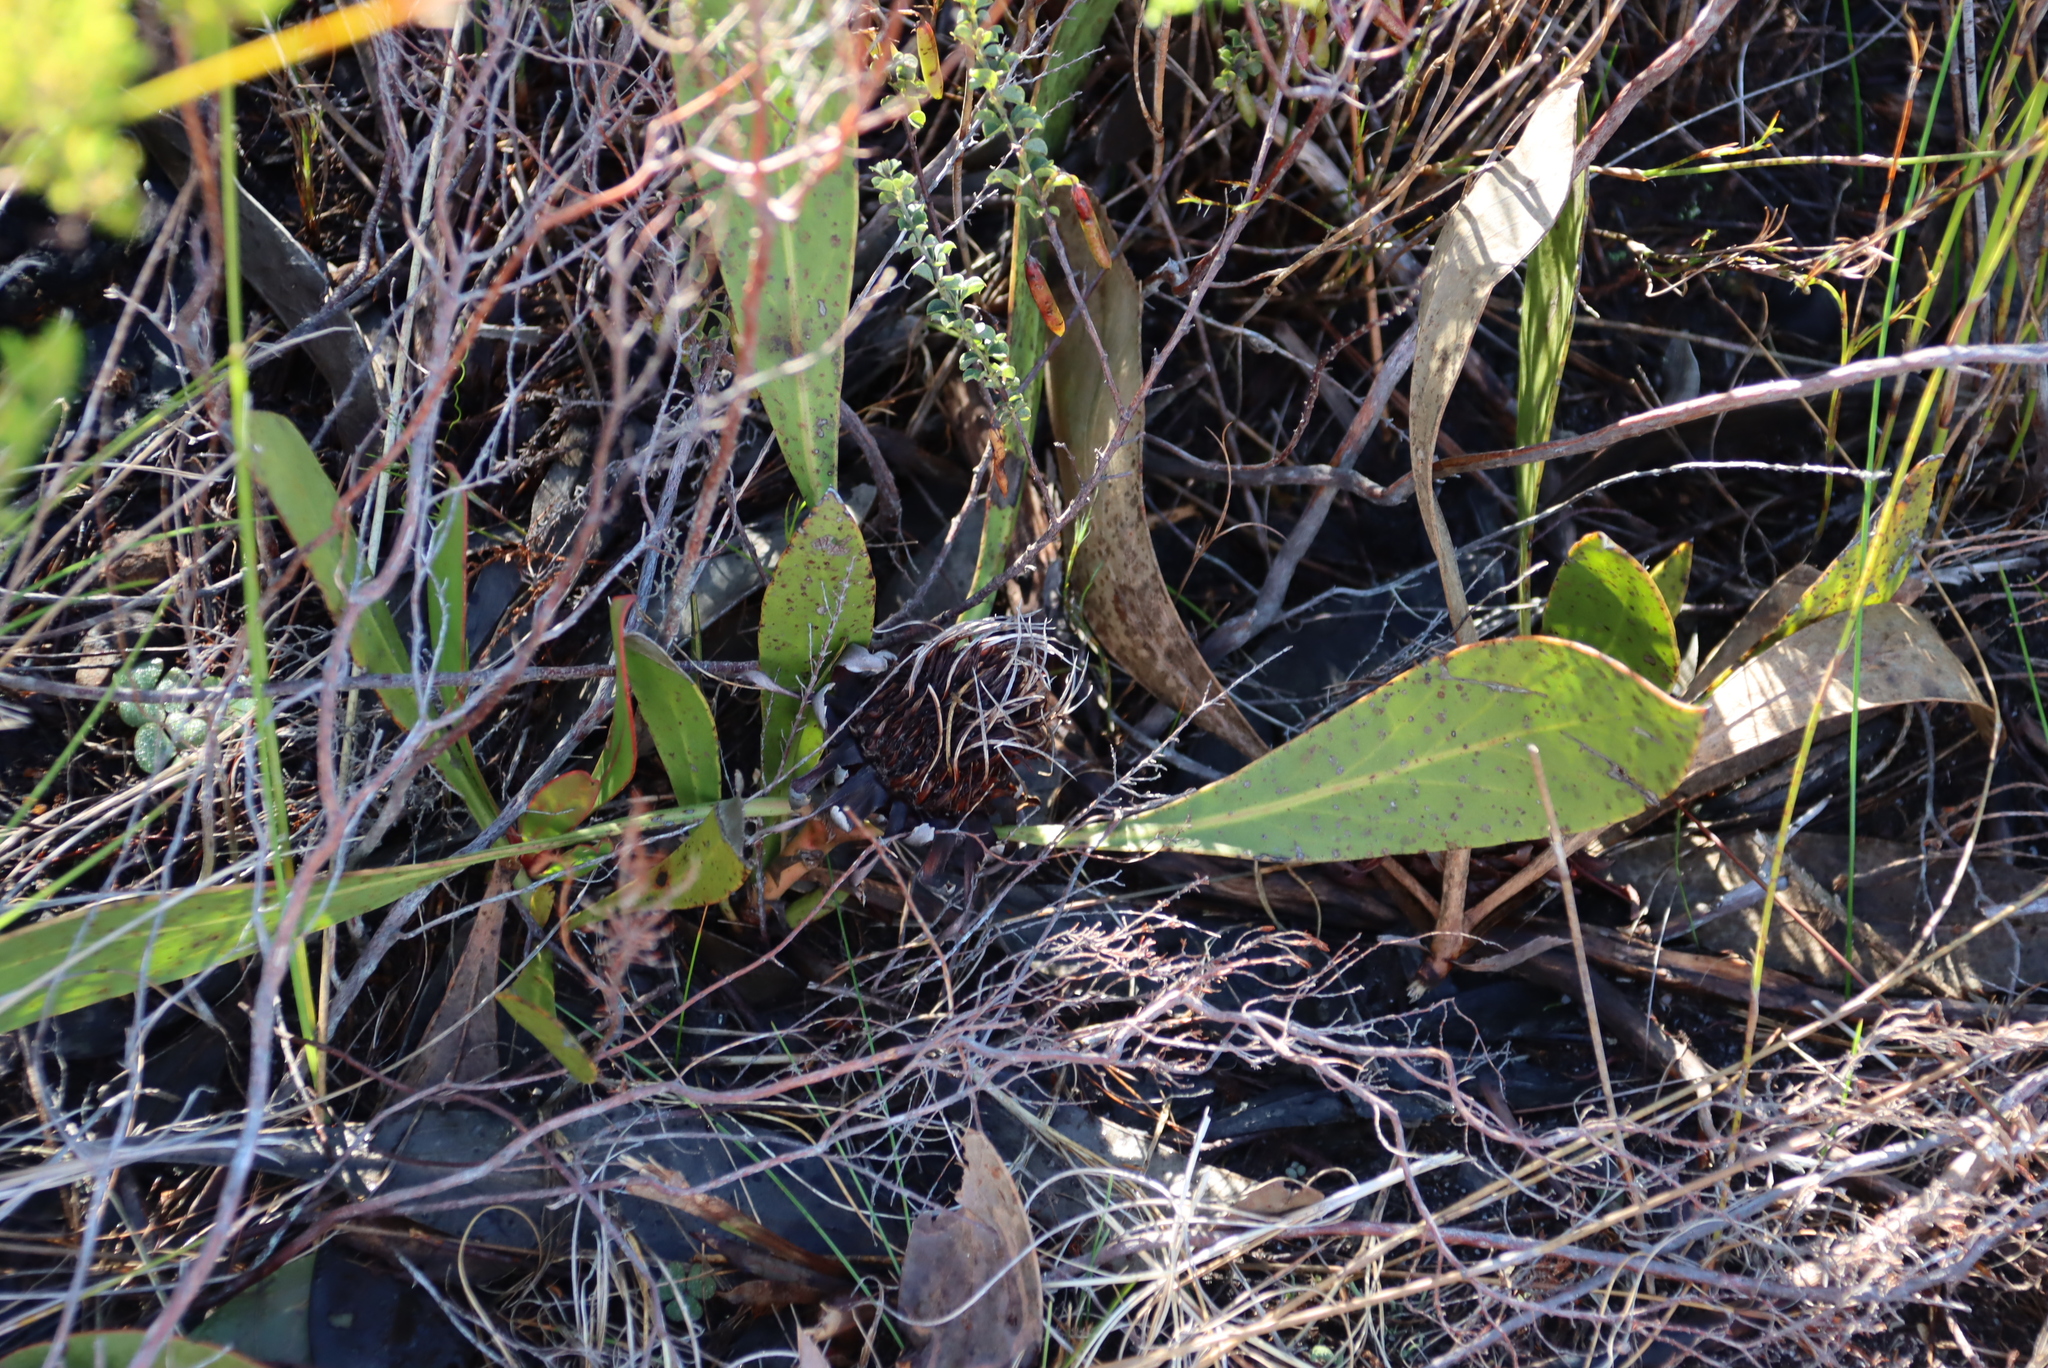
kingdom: Plantae
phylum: Tracheophyta
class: Magnoliopsida
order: Proteales
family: Proteaceae
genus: Protea
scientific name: Protea acaulos
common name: Common ground sugarbush
